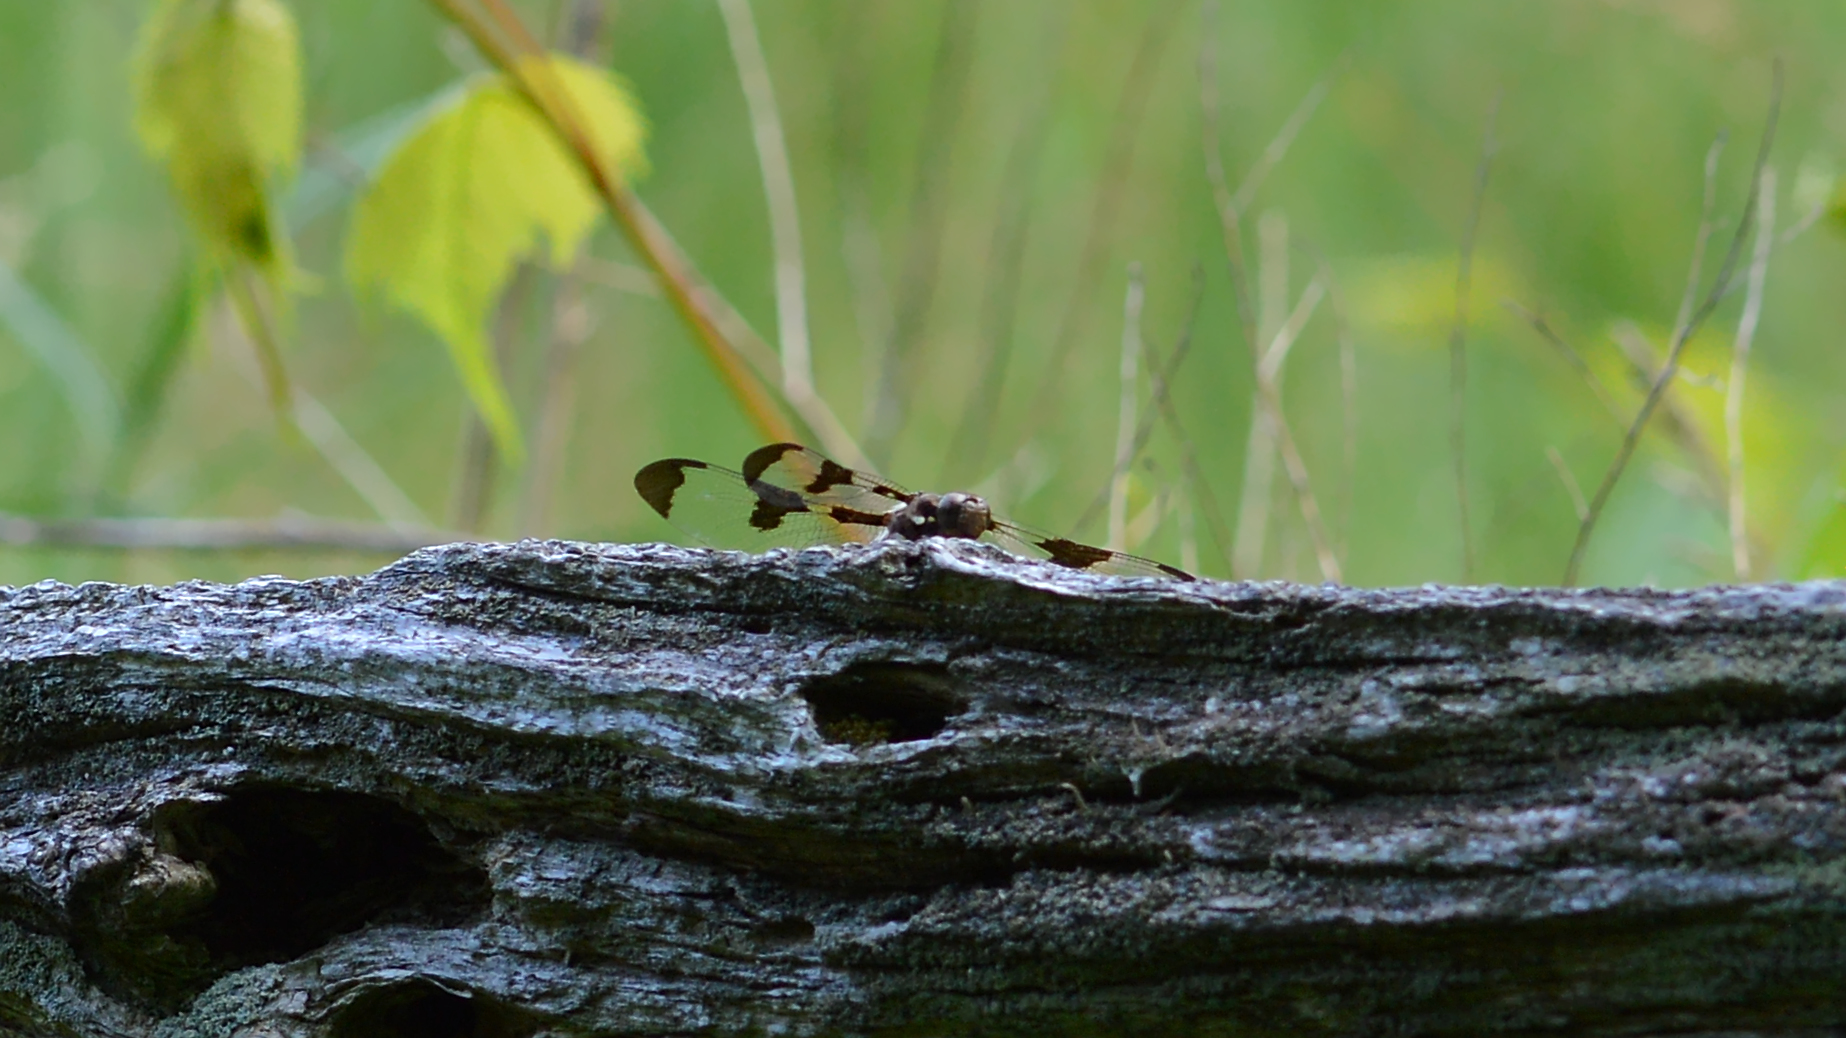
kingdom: Animalia
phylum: Arthropoda
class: Insecta
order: Odonata
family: Libellulidae
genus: Plathemis
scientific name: Plathemis lydia
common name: Common whitetail
